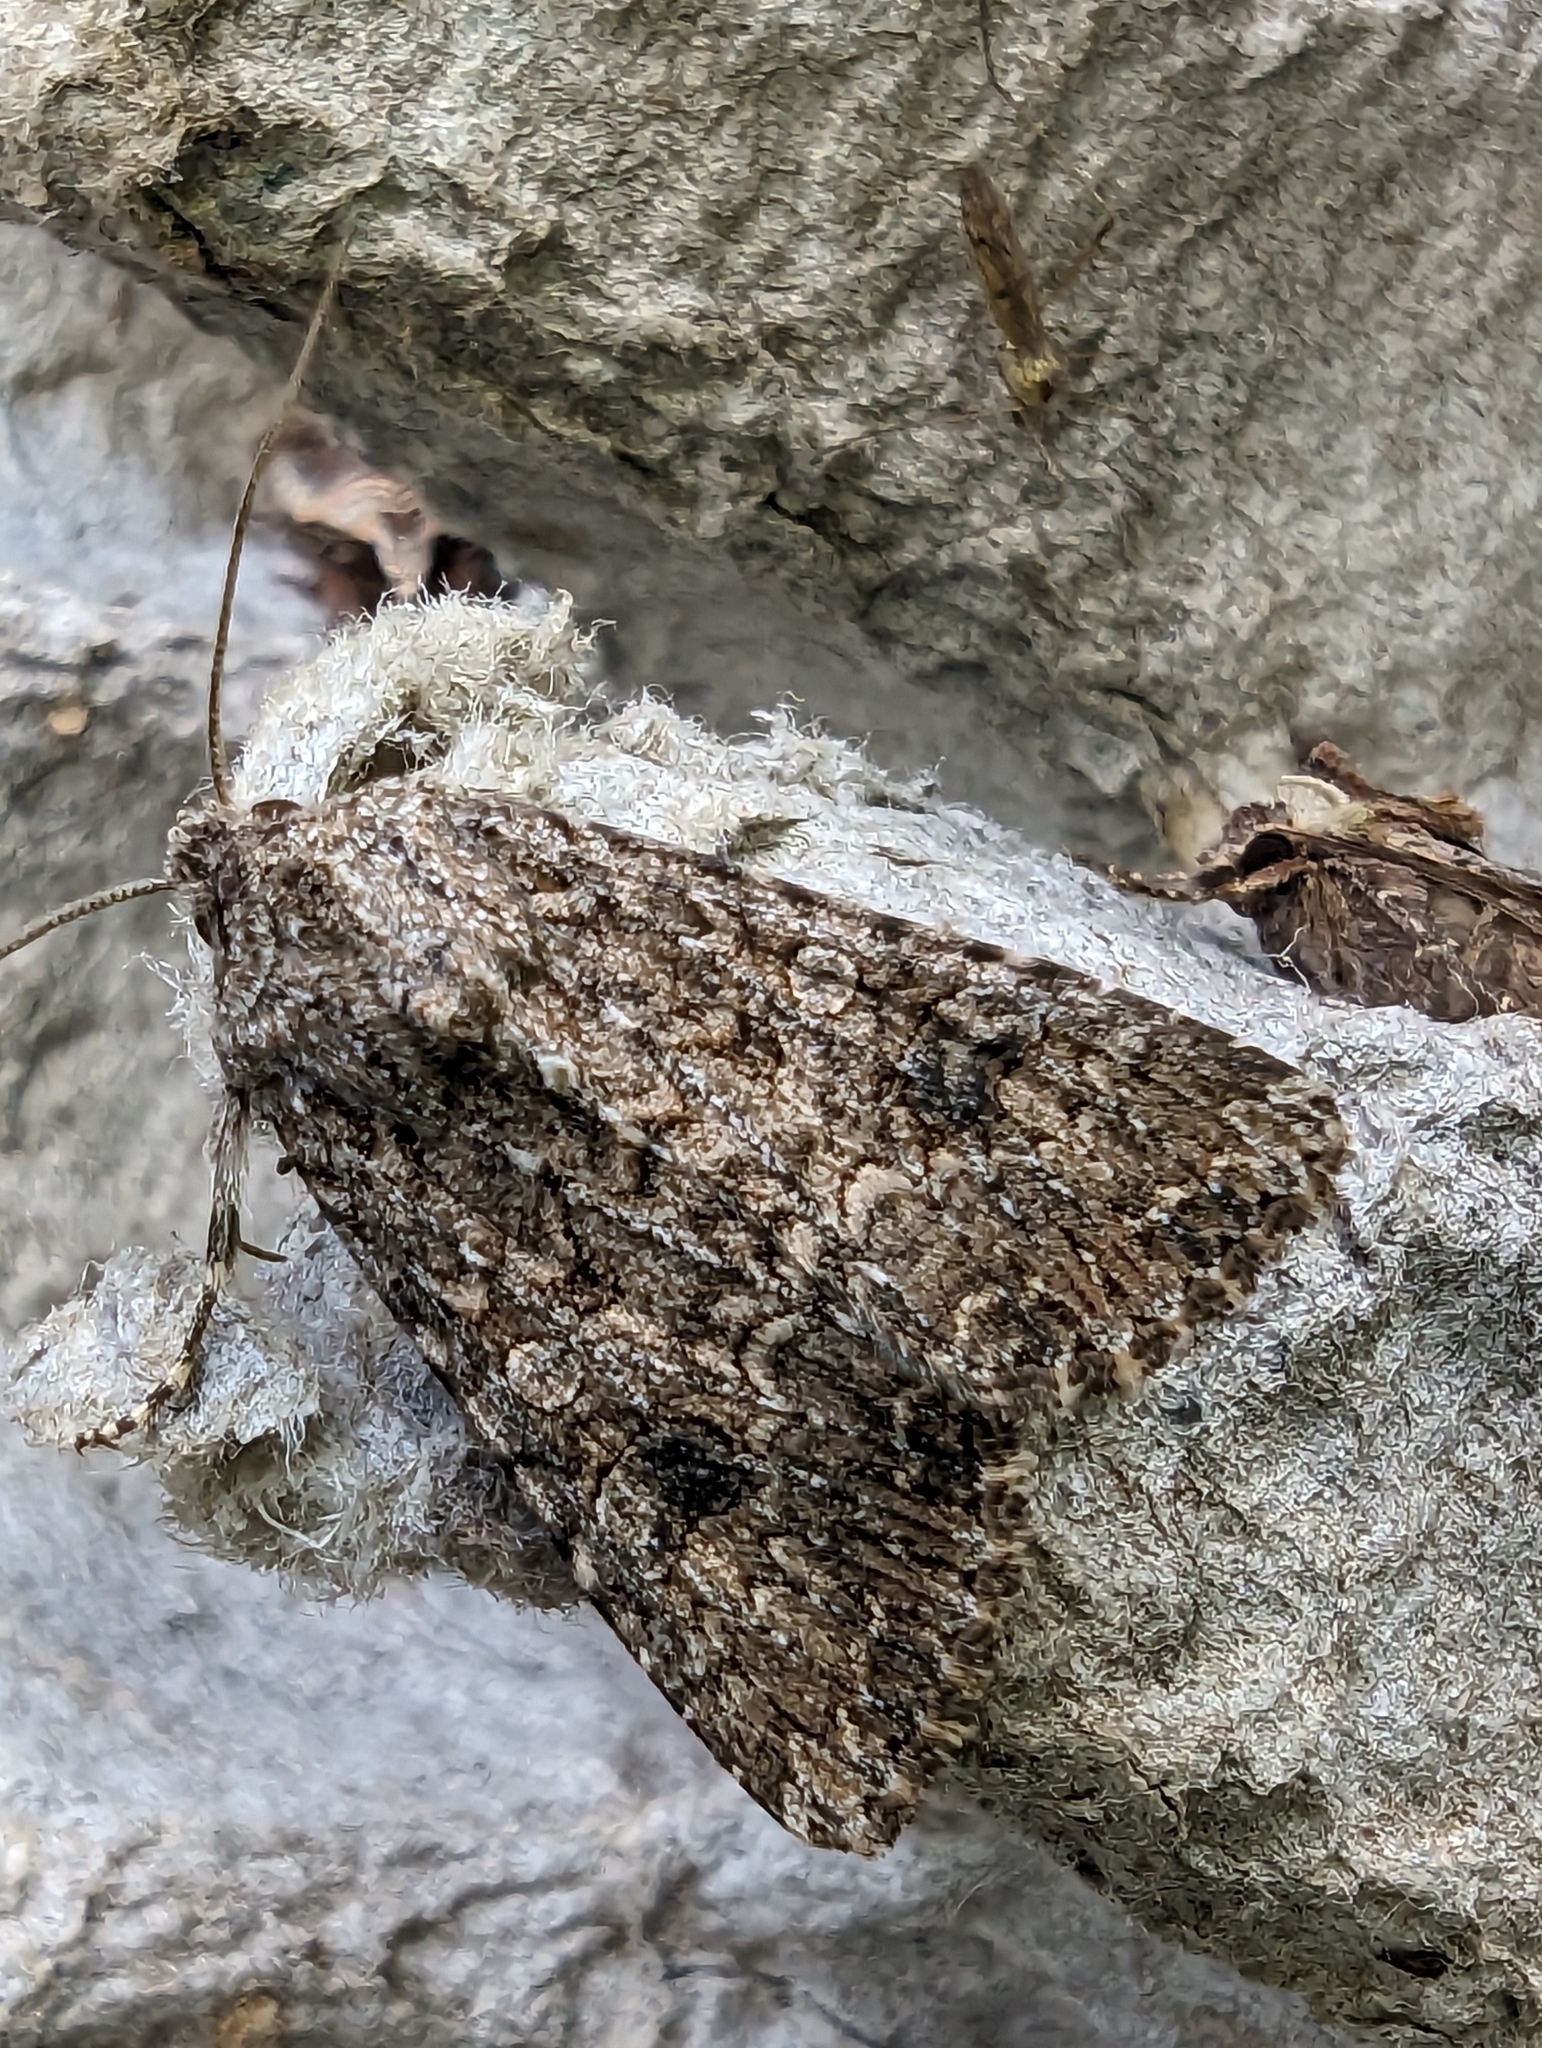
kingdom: Animalia
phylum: Arthropoda
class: Insecta
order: Lepidoptera
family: Noctuidae
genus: Anarta
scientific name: Anarta trifolii
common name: Clover cutworm moth
